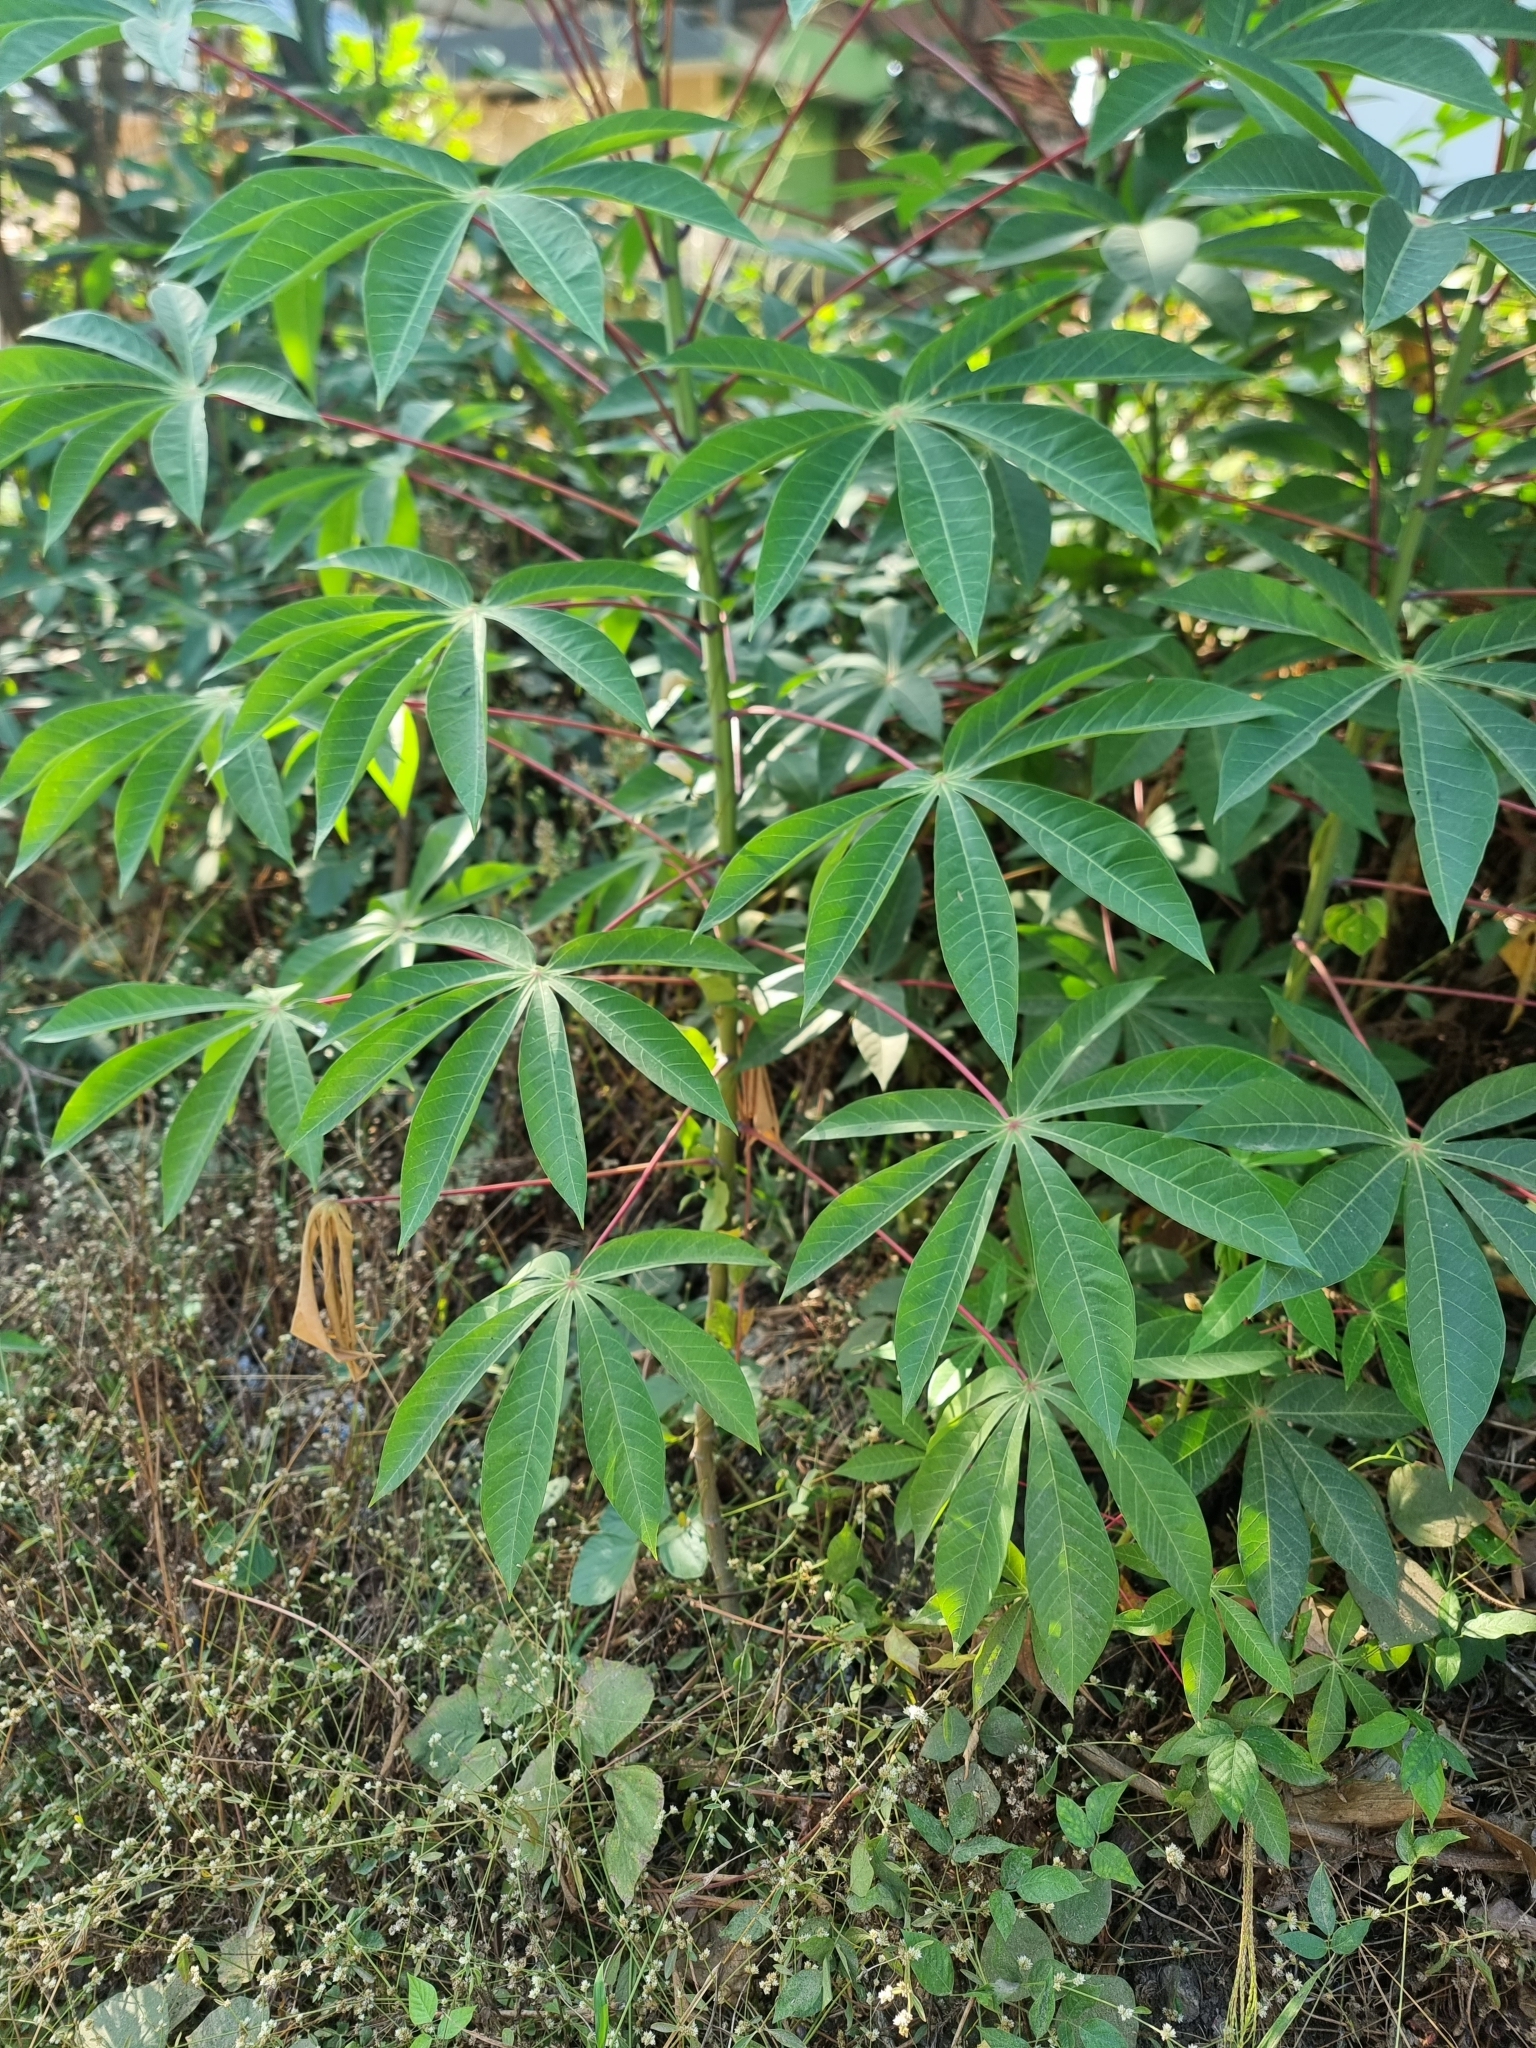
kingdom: Plantae
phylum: Tracheophyta
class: Magnoliopsida
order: Malpighiales
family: Euphorbiaceae
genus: Manihot
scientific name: Manihot esculenta
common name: Cassava
